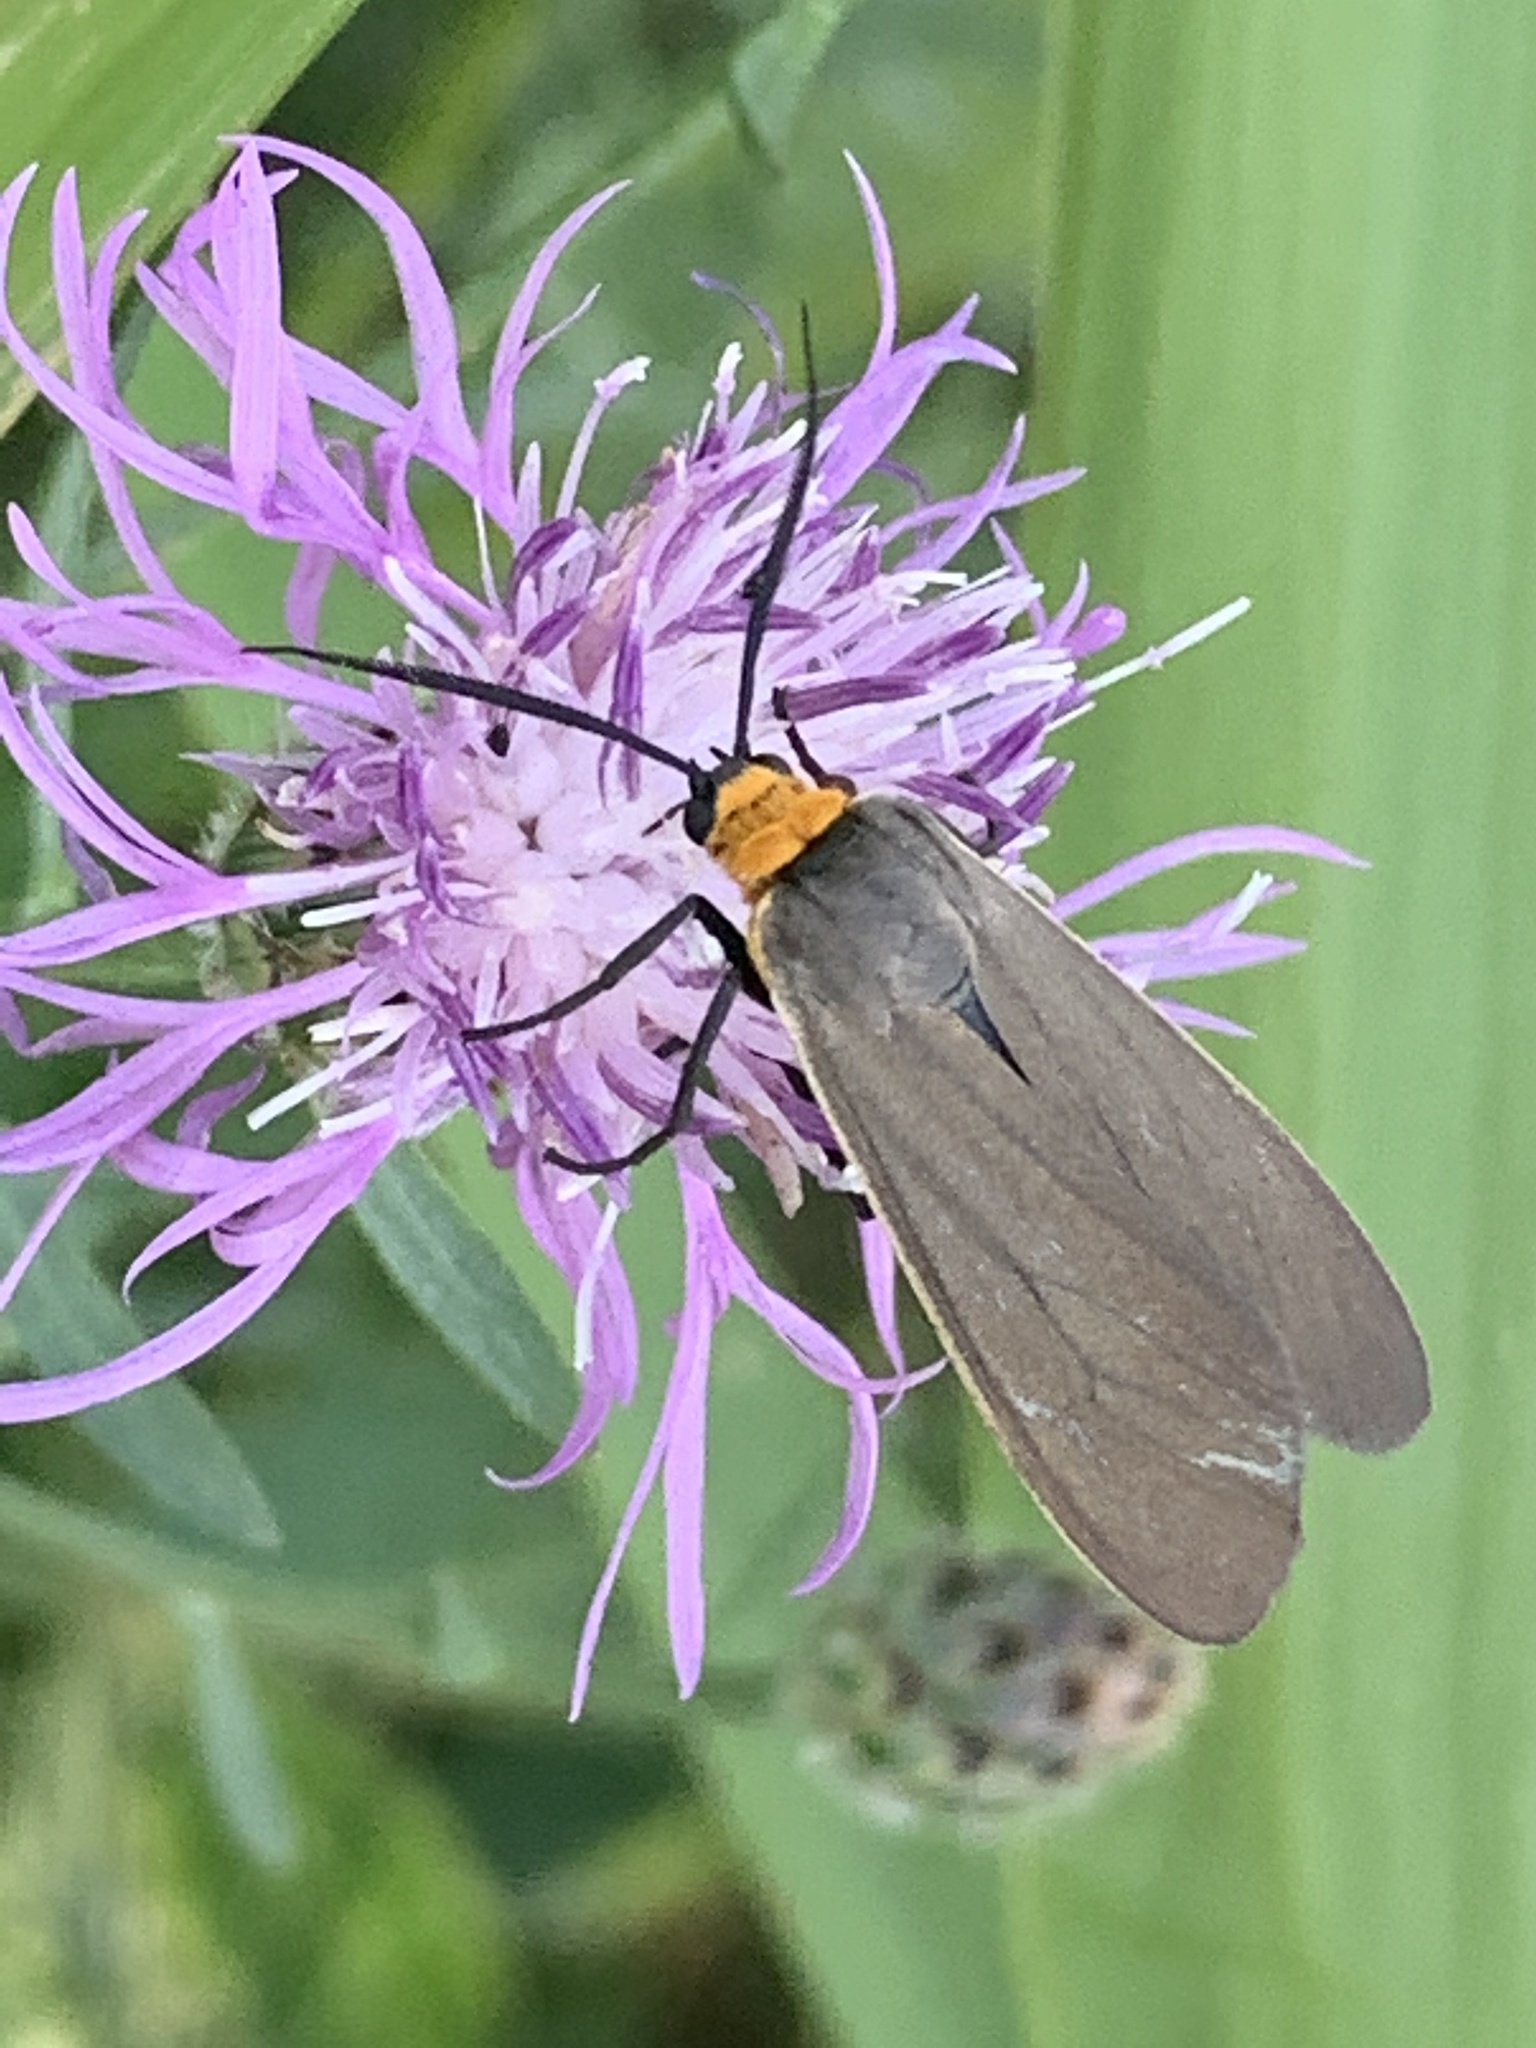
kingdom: Animalia
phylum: Arthropoda
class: Insecta
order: Lepidoptera
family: Erebidae
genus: Cisseps
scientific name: Cisseps fulvicollis
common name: Yellow-collared scape moth
